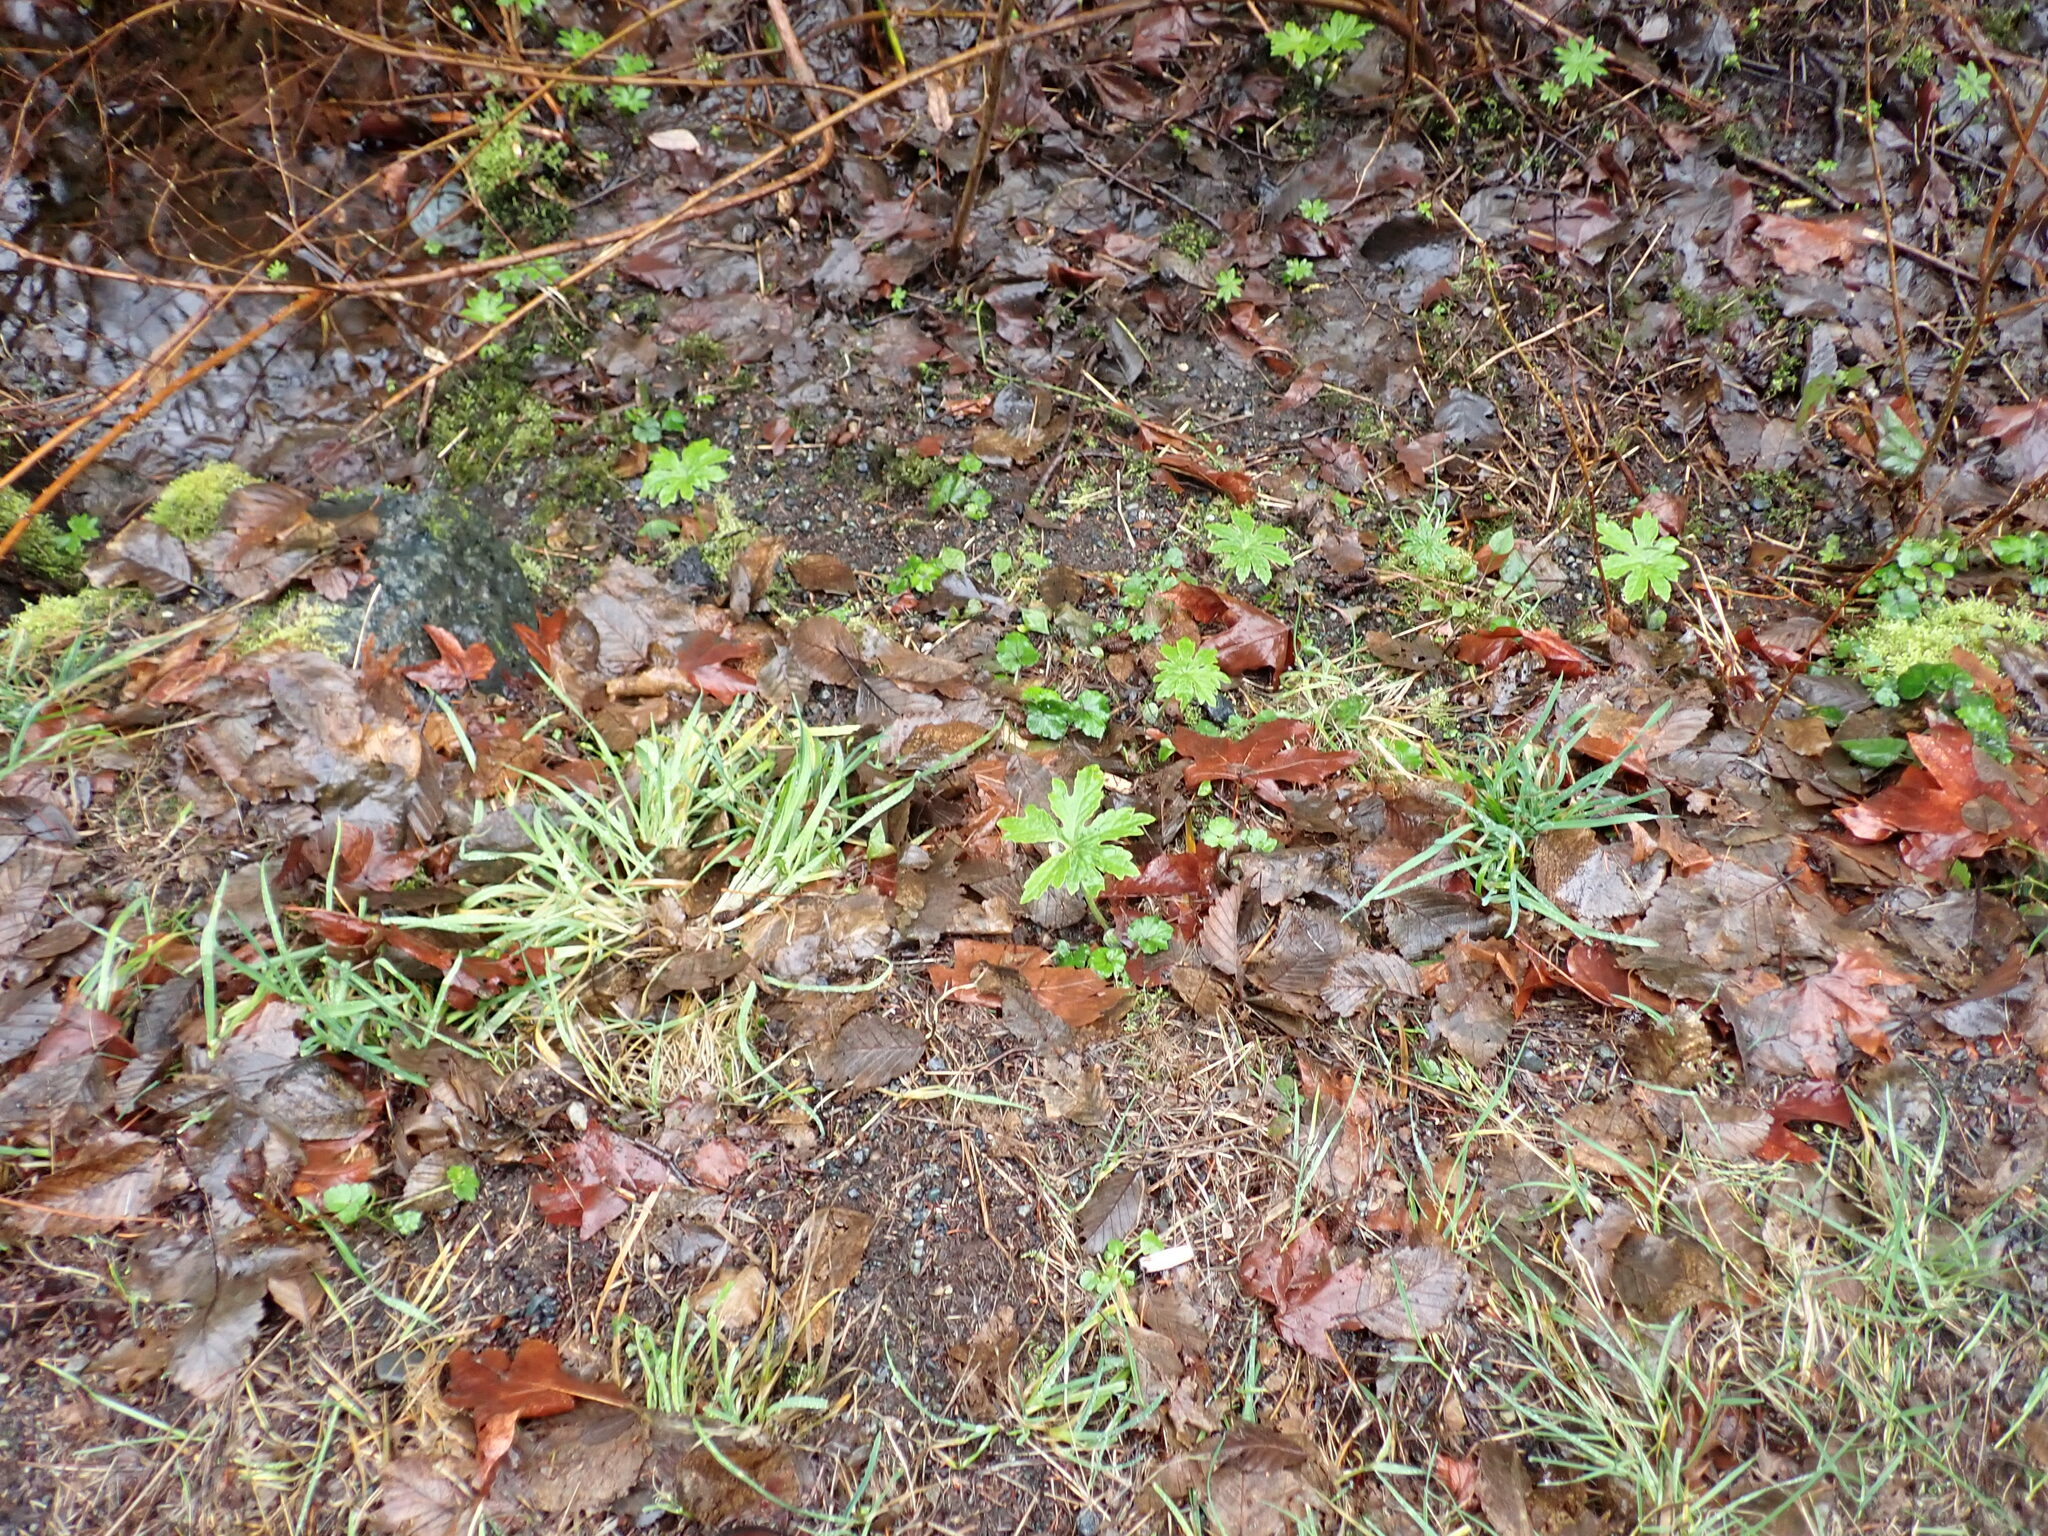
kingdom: Plantae
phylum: Tracheophyta
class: Magnoliopsida
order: Asterales
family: Asteraceae
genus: Petasites
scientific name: Petasites frigidus
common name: Arctic butterbur
